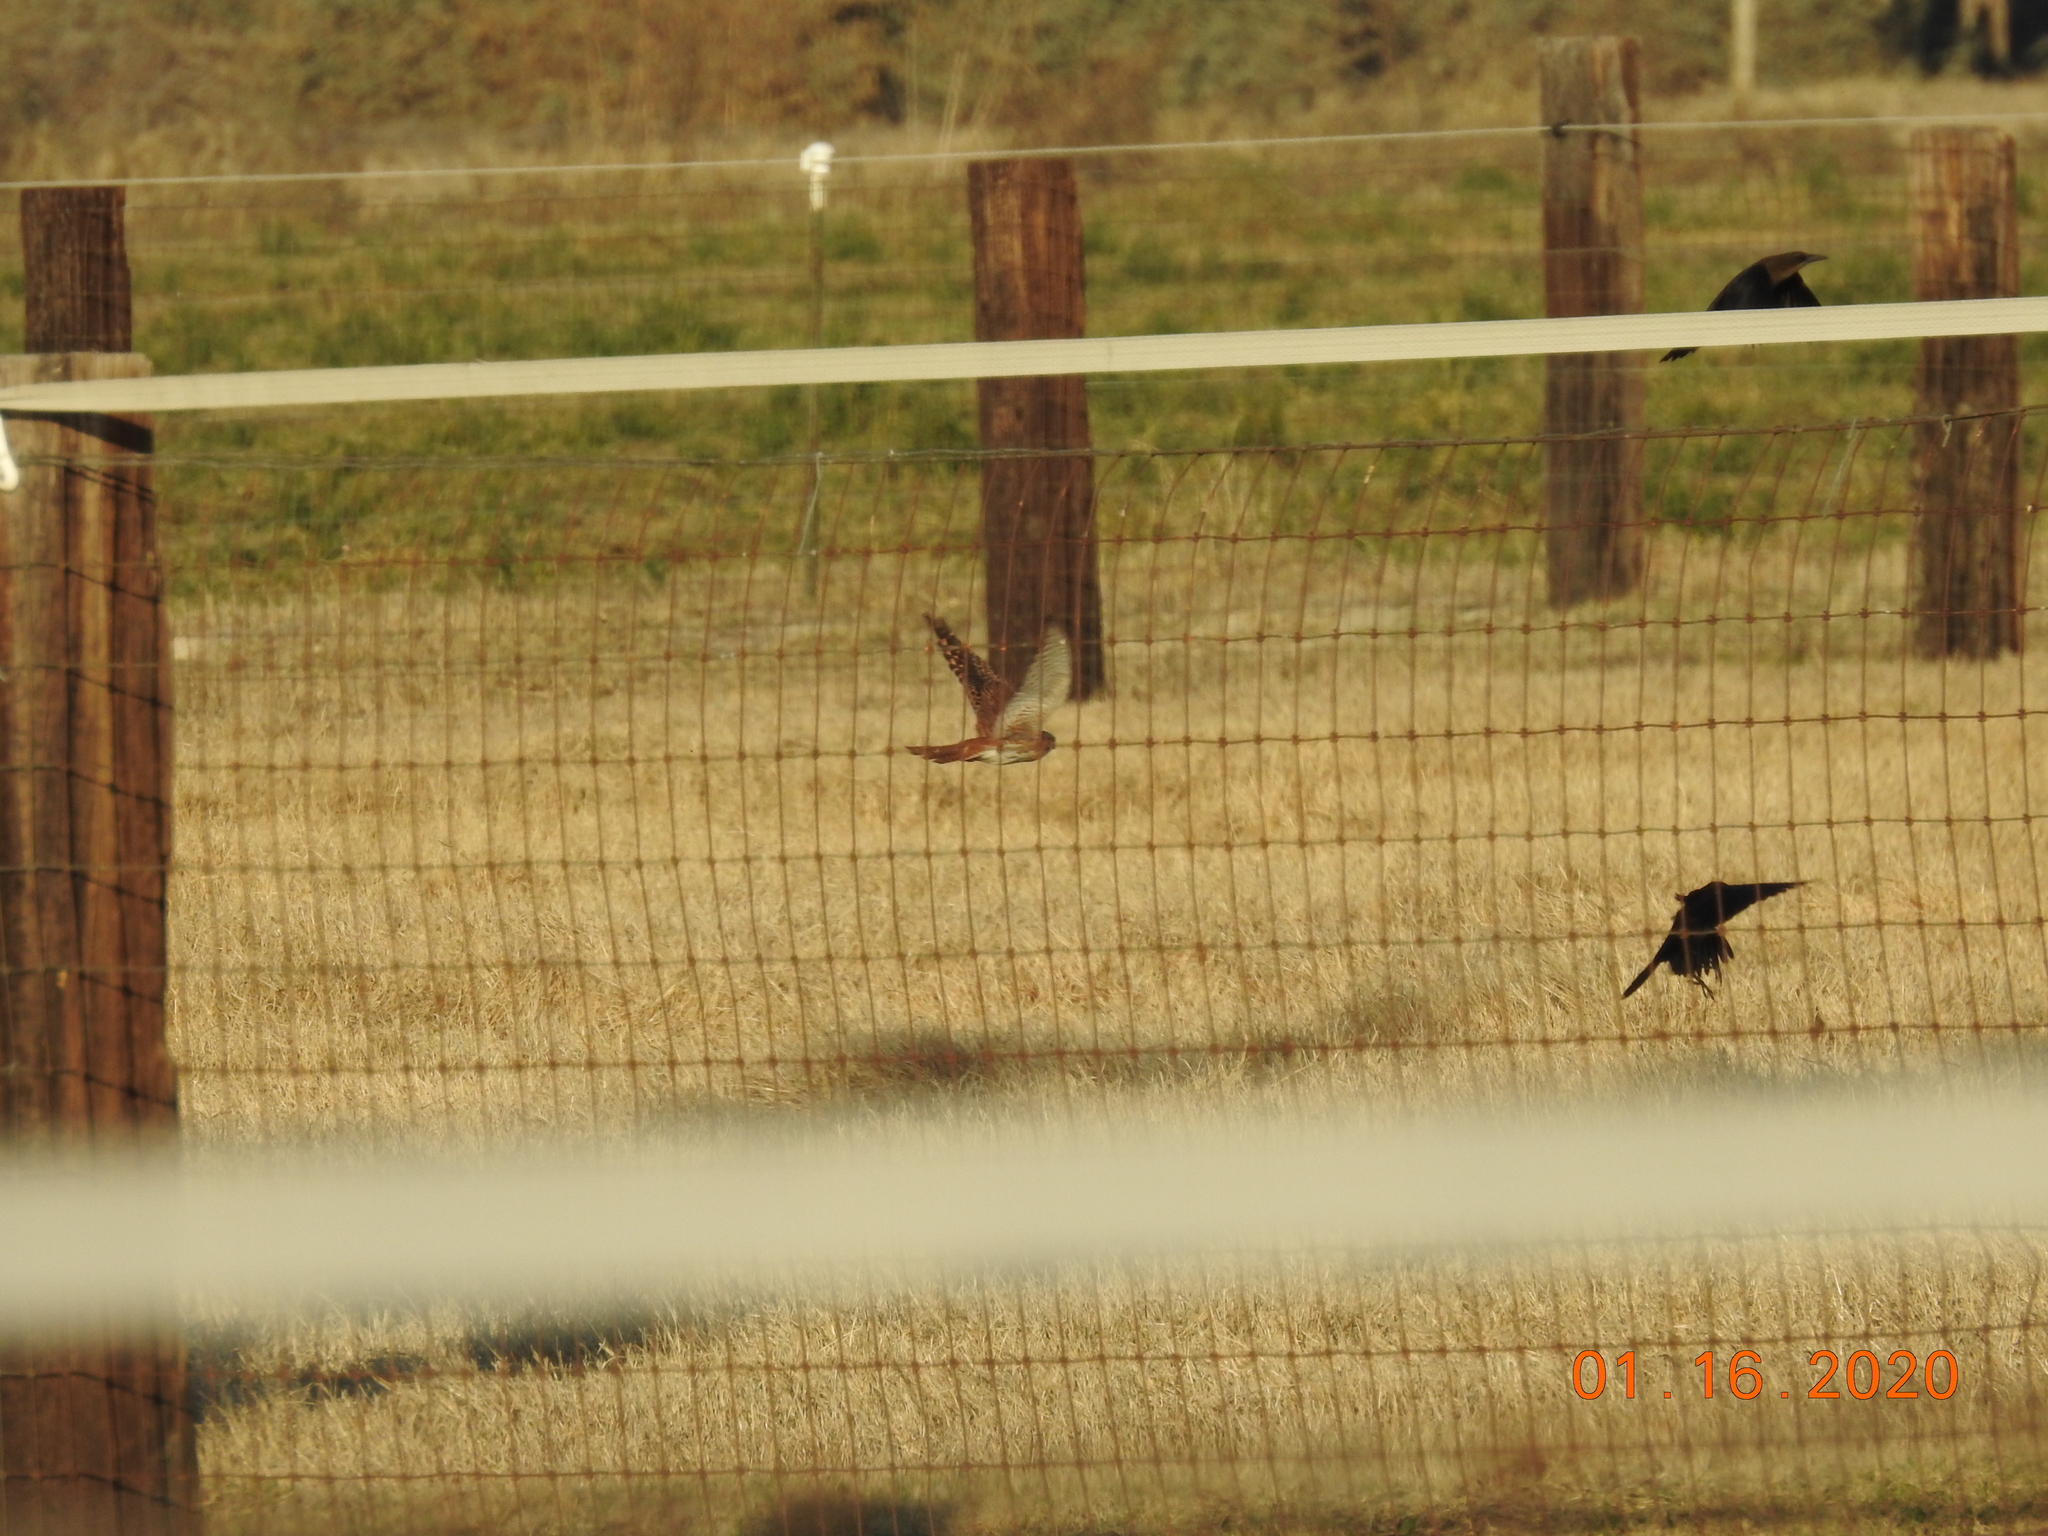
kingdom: Animalia
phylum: Chordata
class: Aves
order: Falconiformes
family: Falconidae
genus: Falco
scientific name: Falco sparverius
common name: American kestrel
